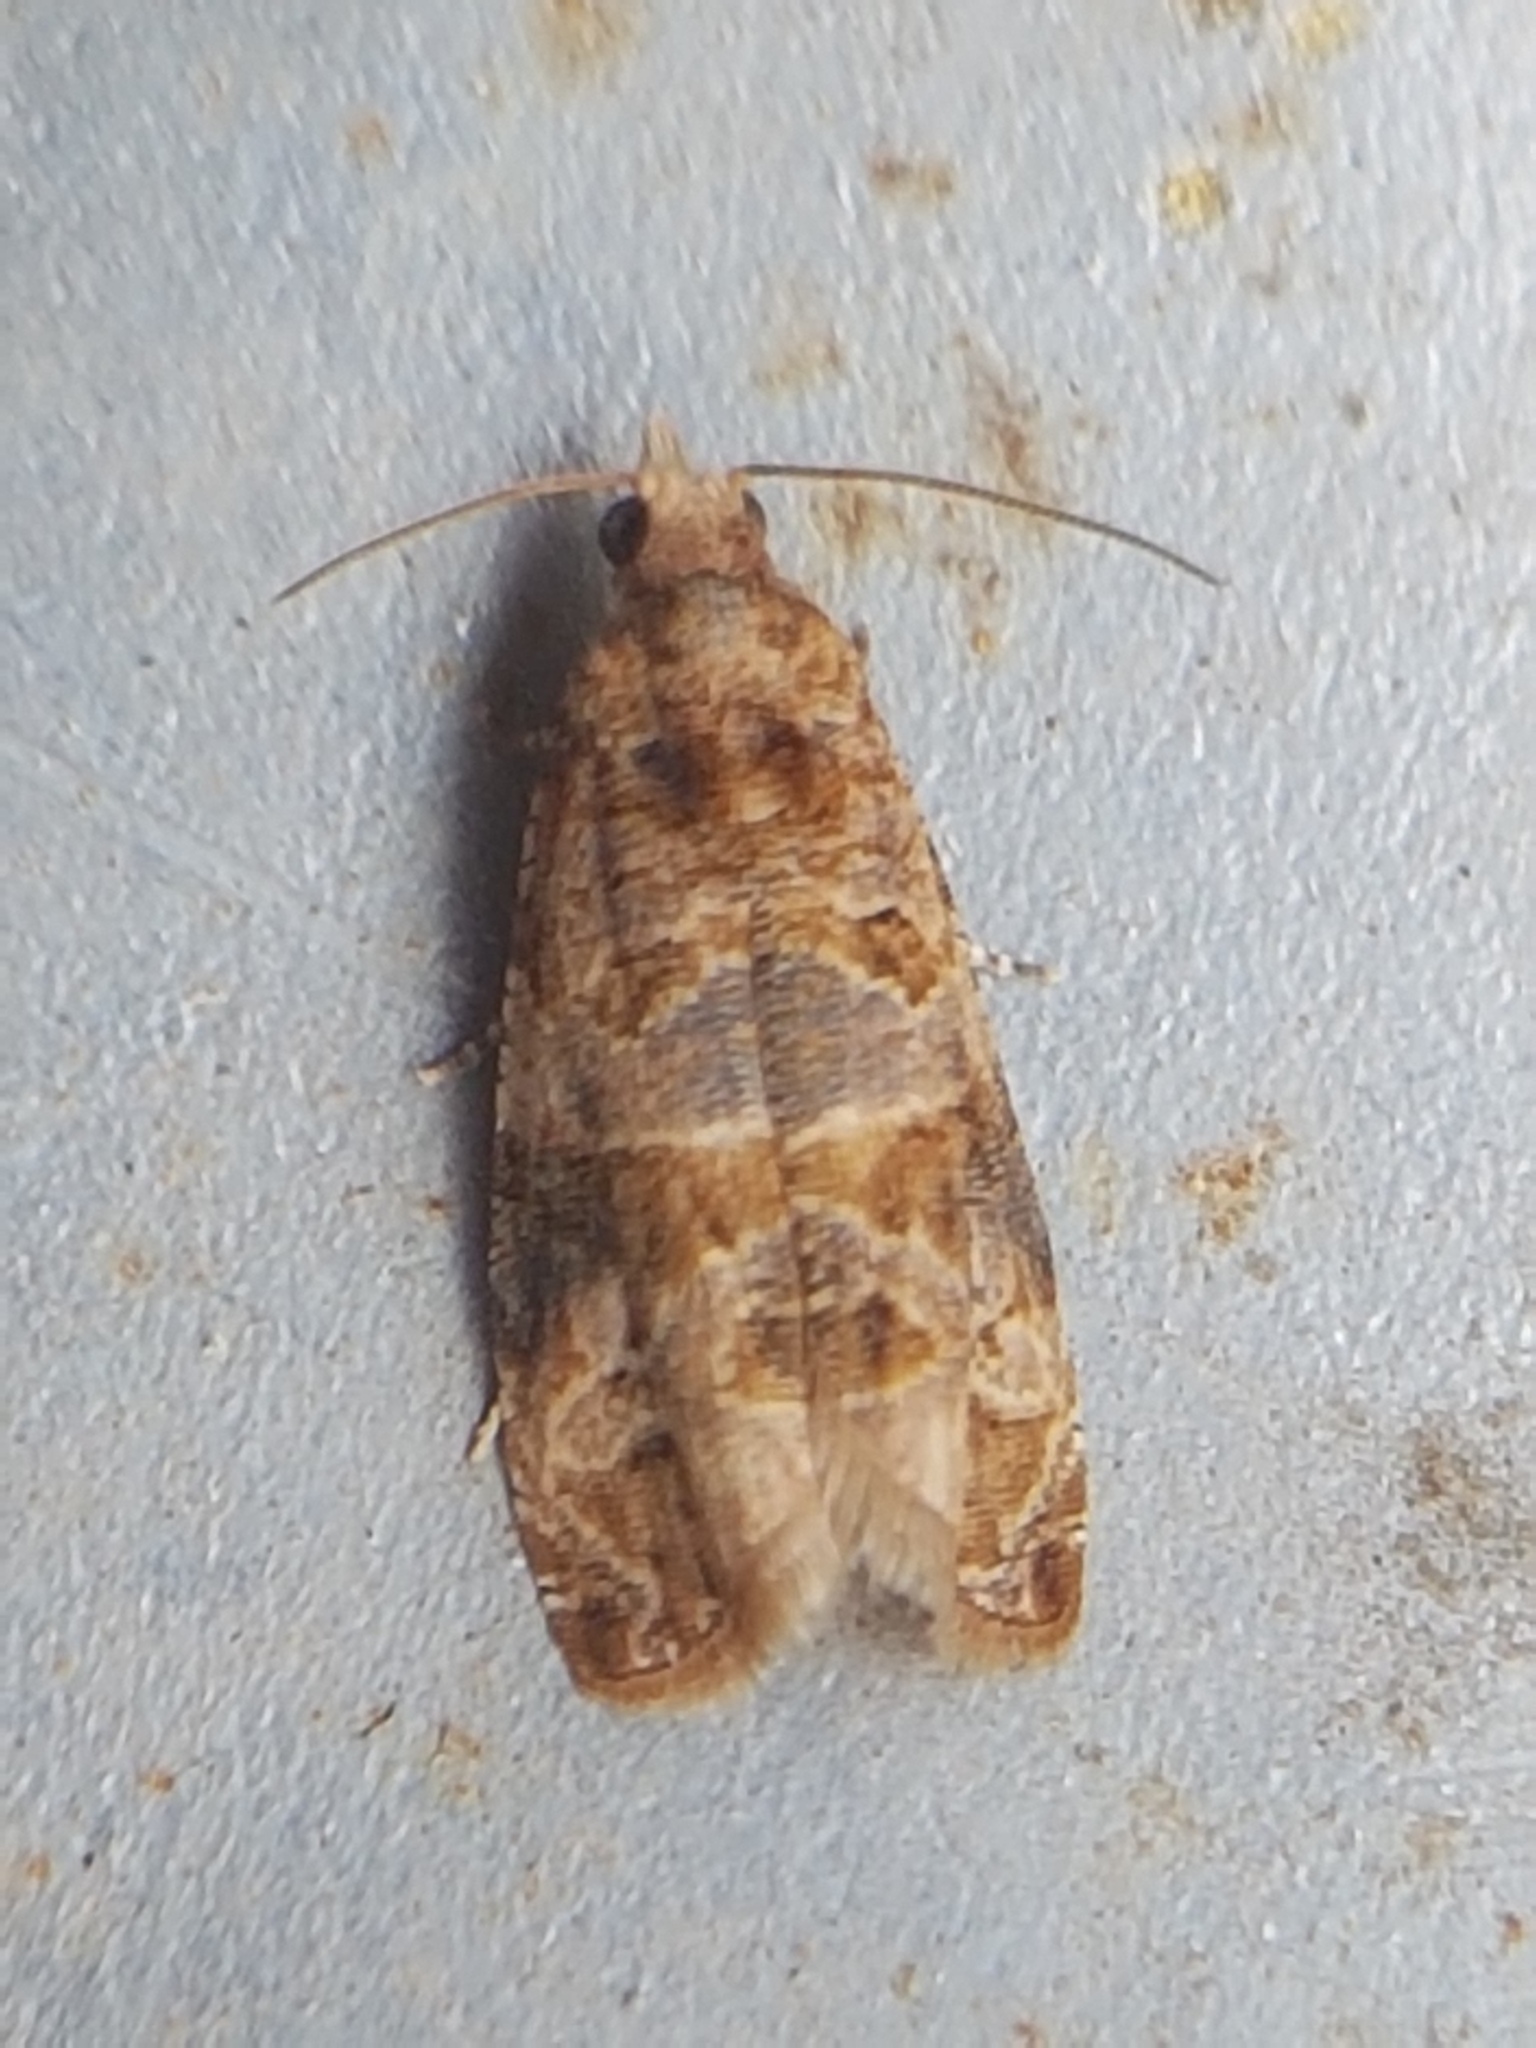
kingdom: Animalia
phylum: Arthropoda
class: Insecta
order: Lepidoptera
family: Tortricidae
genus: Lobesia
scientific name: Lobesia botrana
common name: European vine moth
